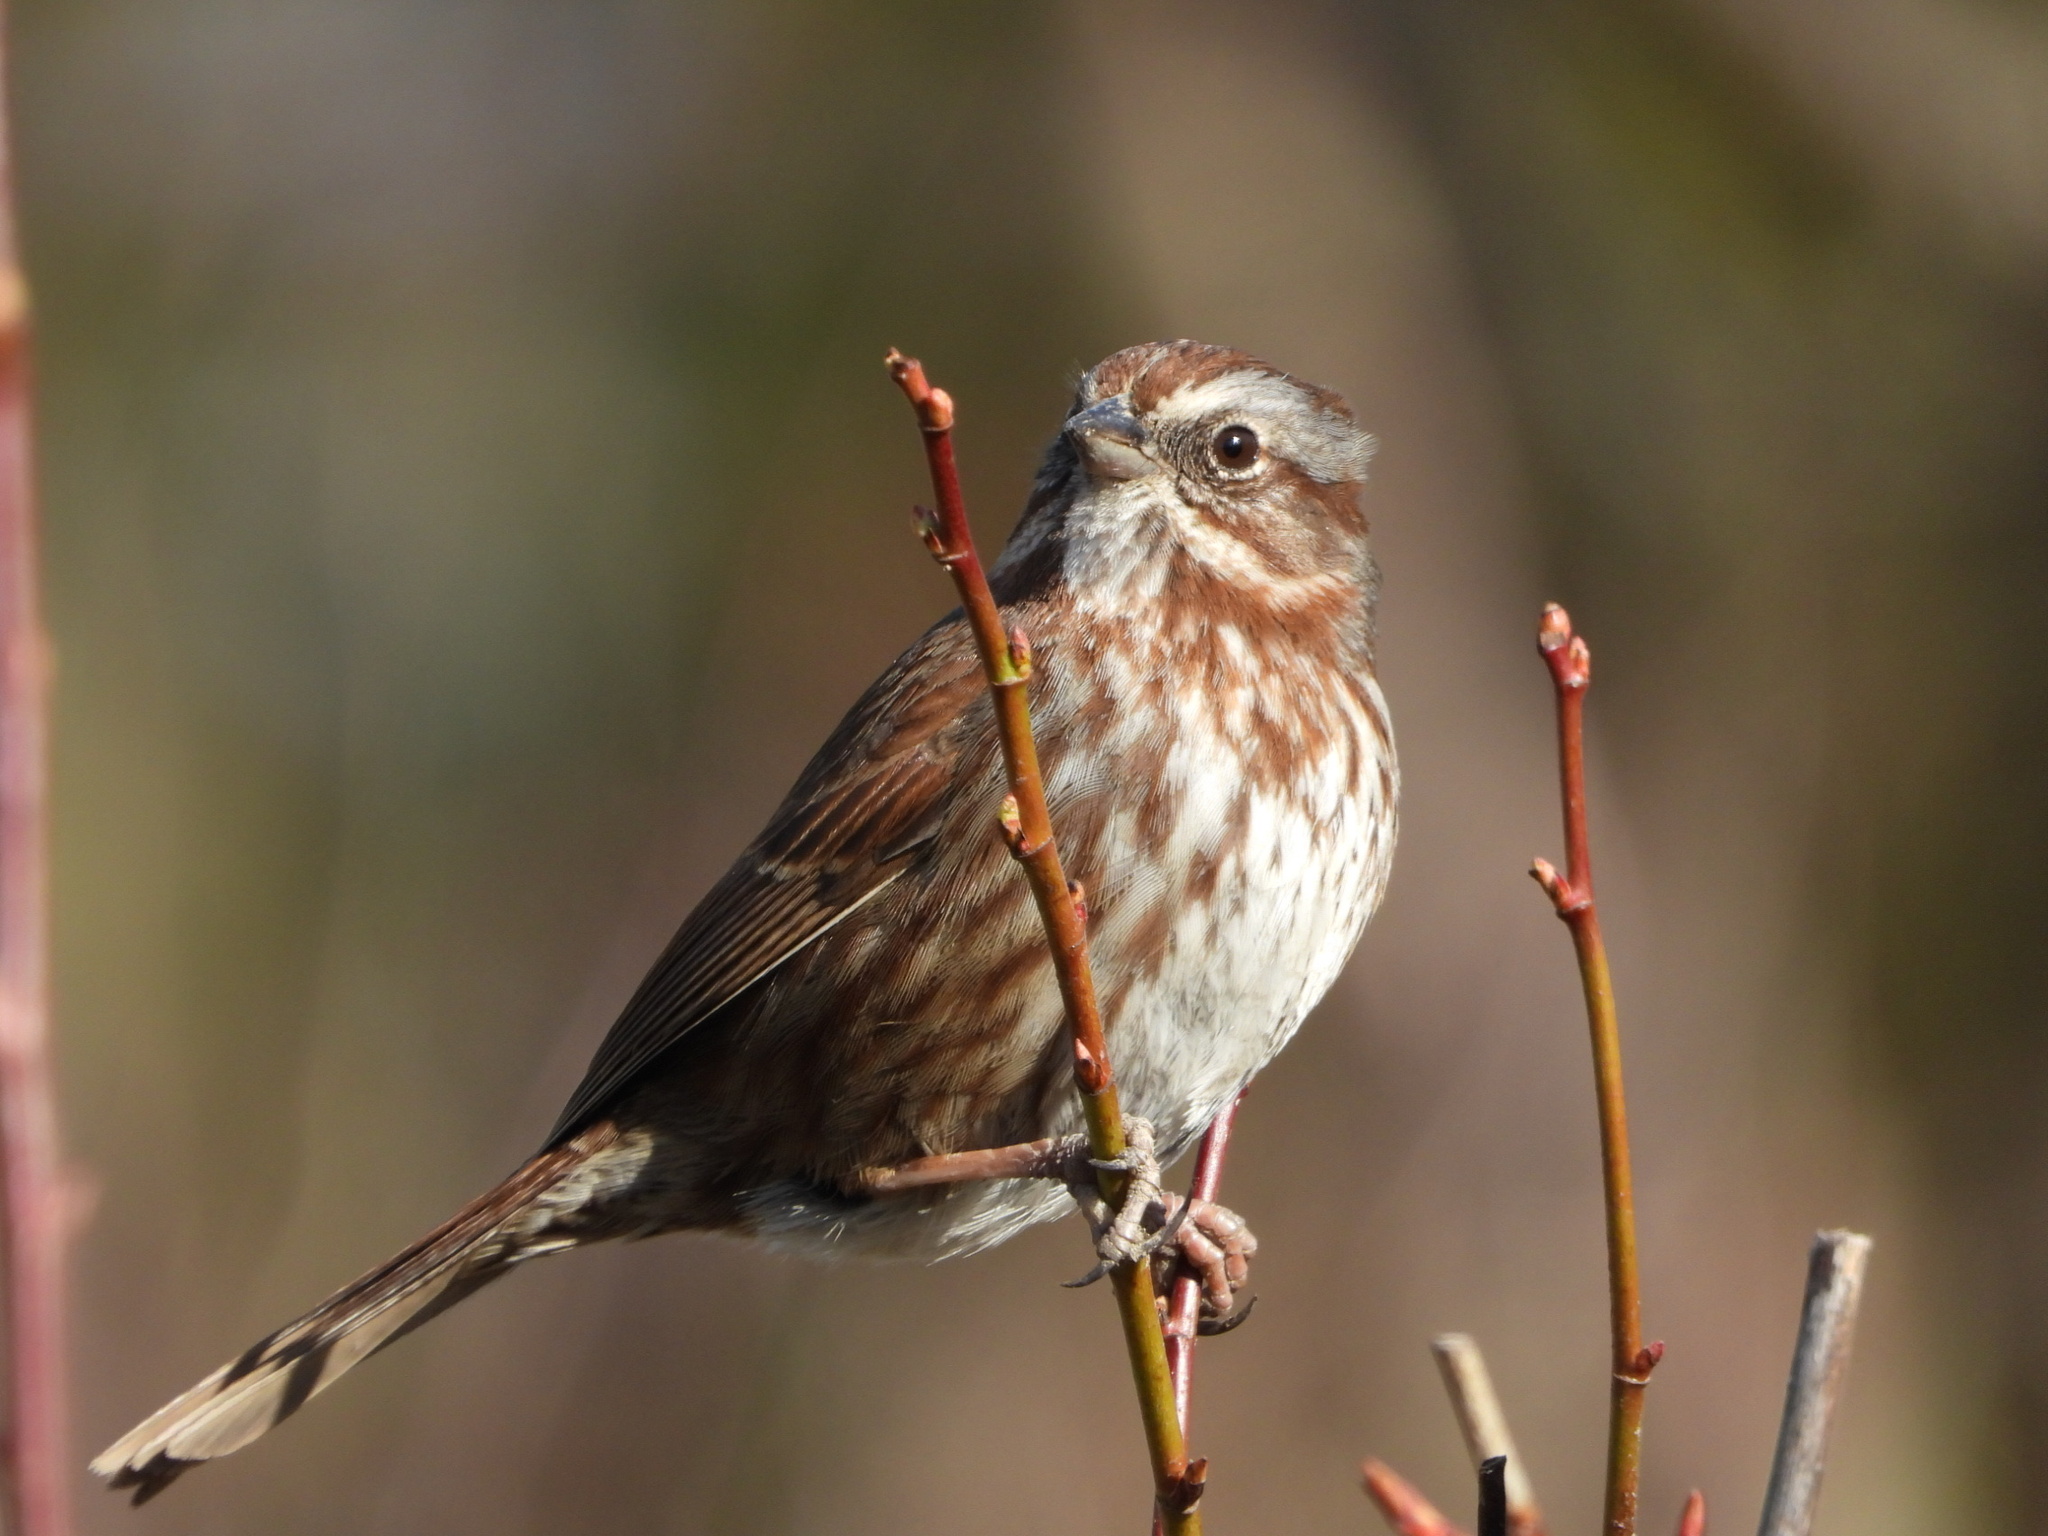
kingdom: Animalia
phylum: Chordata
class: Aves
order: Passeriformes
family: Passerellidae
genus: Melospiza
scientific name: Melospiza melodia
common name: Song sparrow
